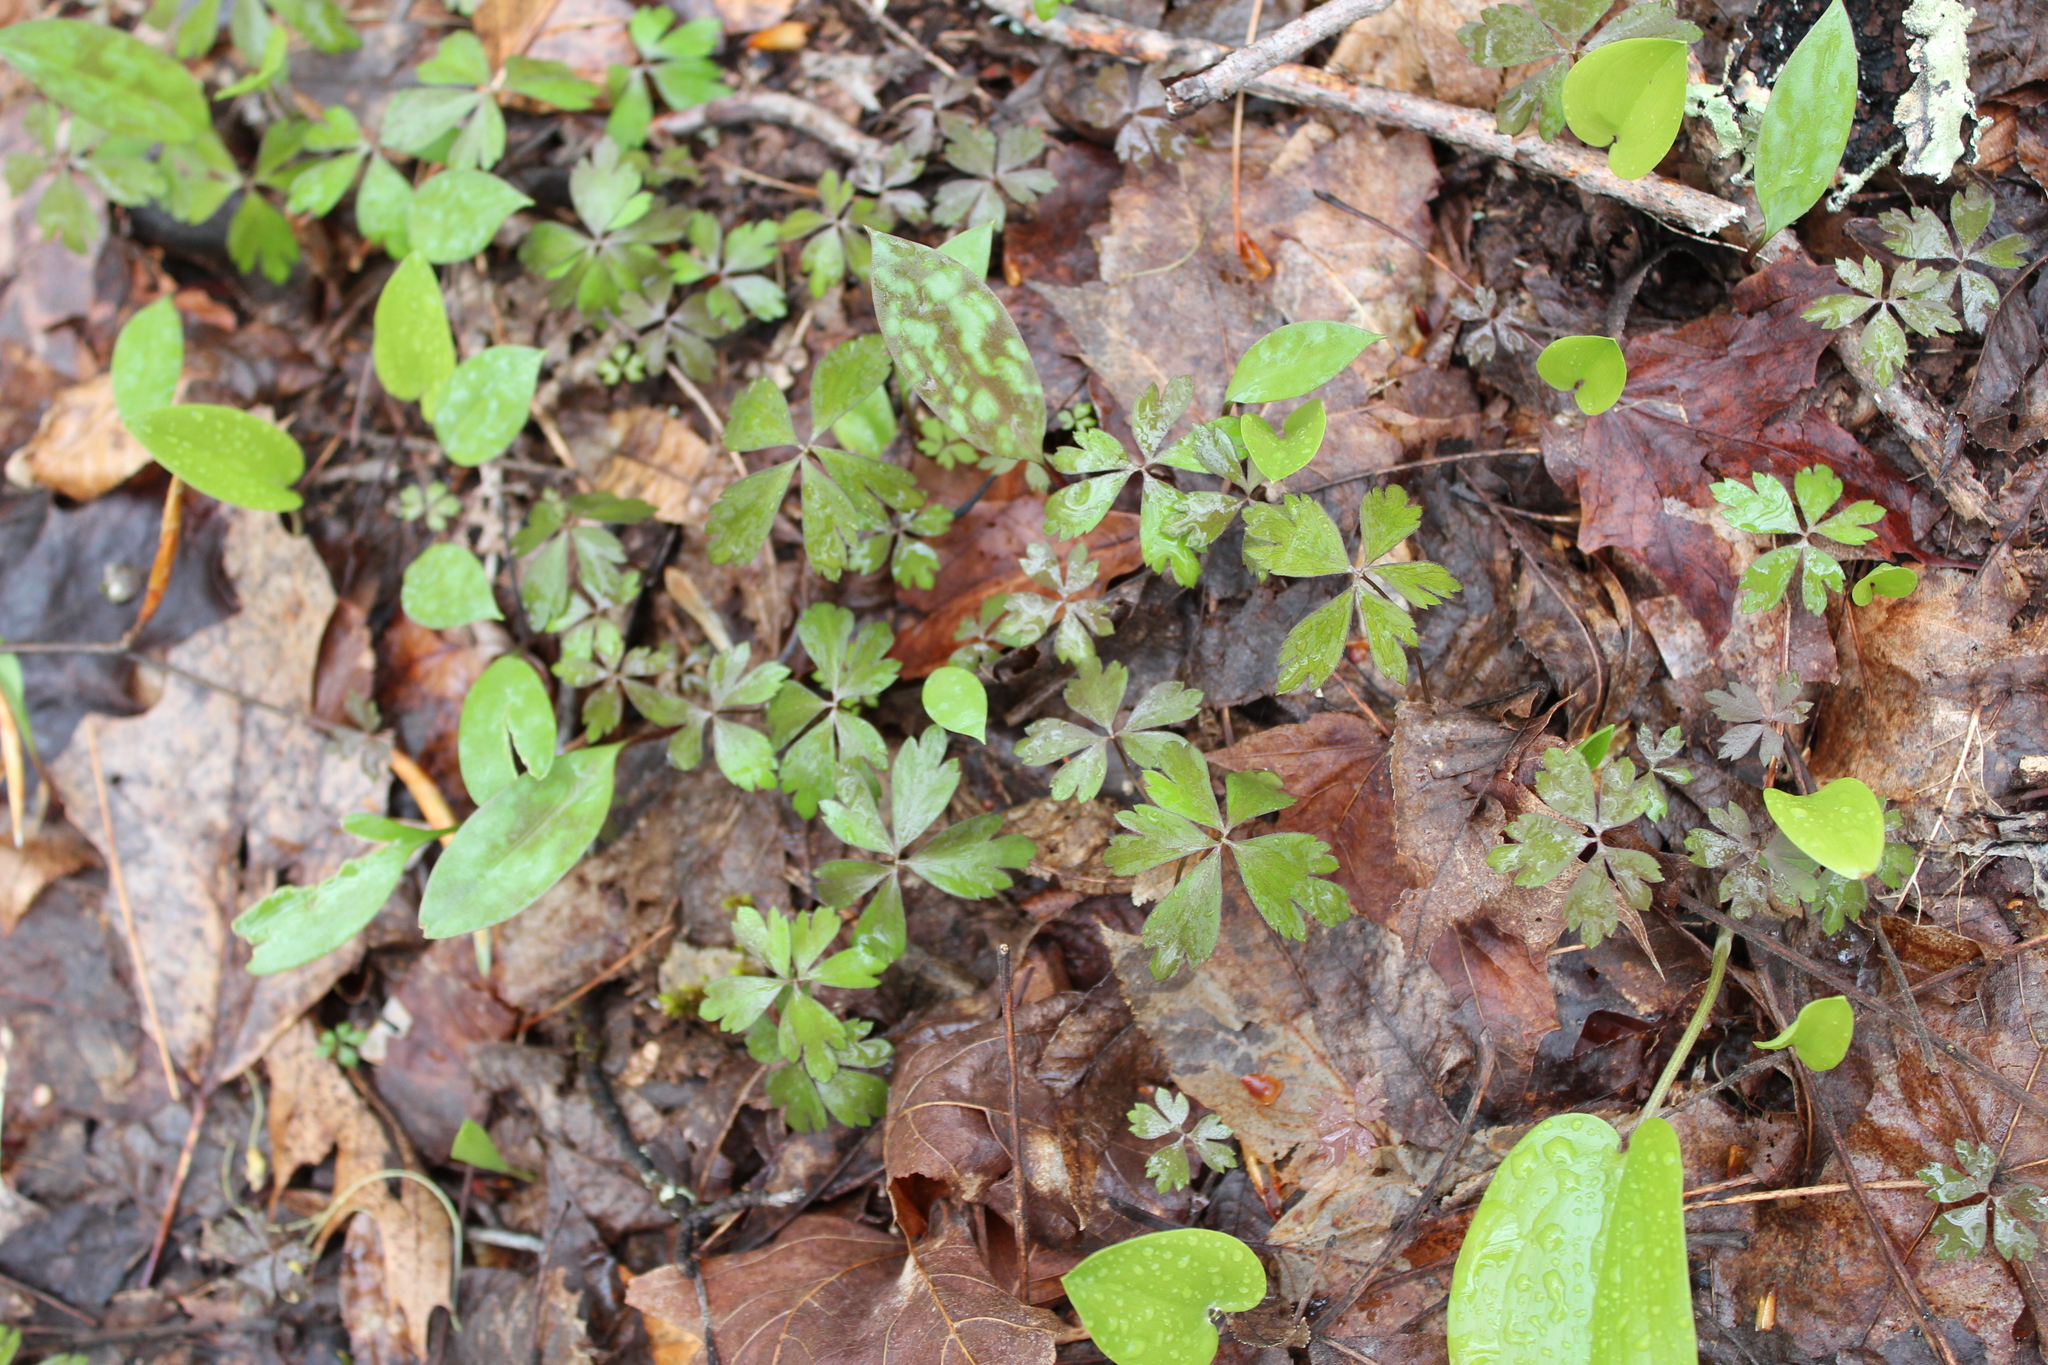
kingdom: Plantae
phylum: Tracheophyta
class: Magnoliopsida
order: Ranunculales
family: Ranunculaceae
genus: Anemone
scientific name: Anemone quinquefolia
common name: Wood anemone
